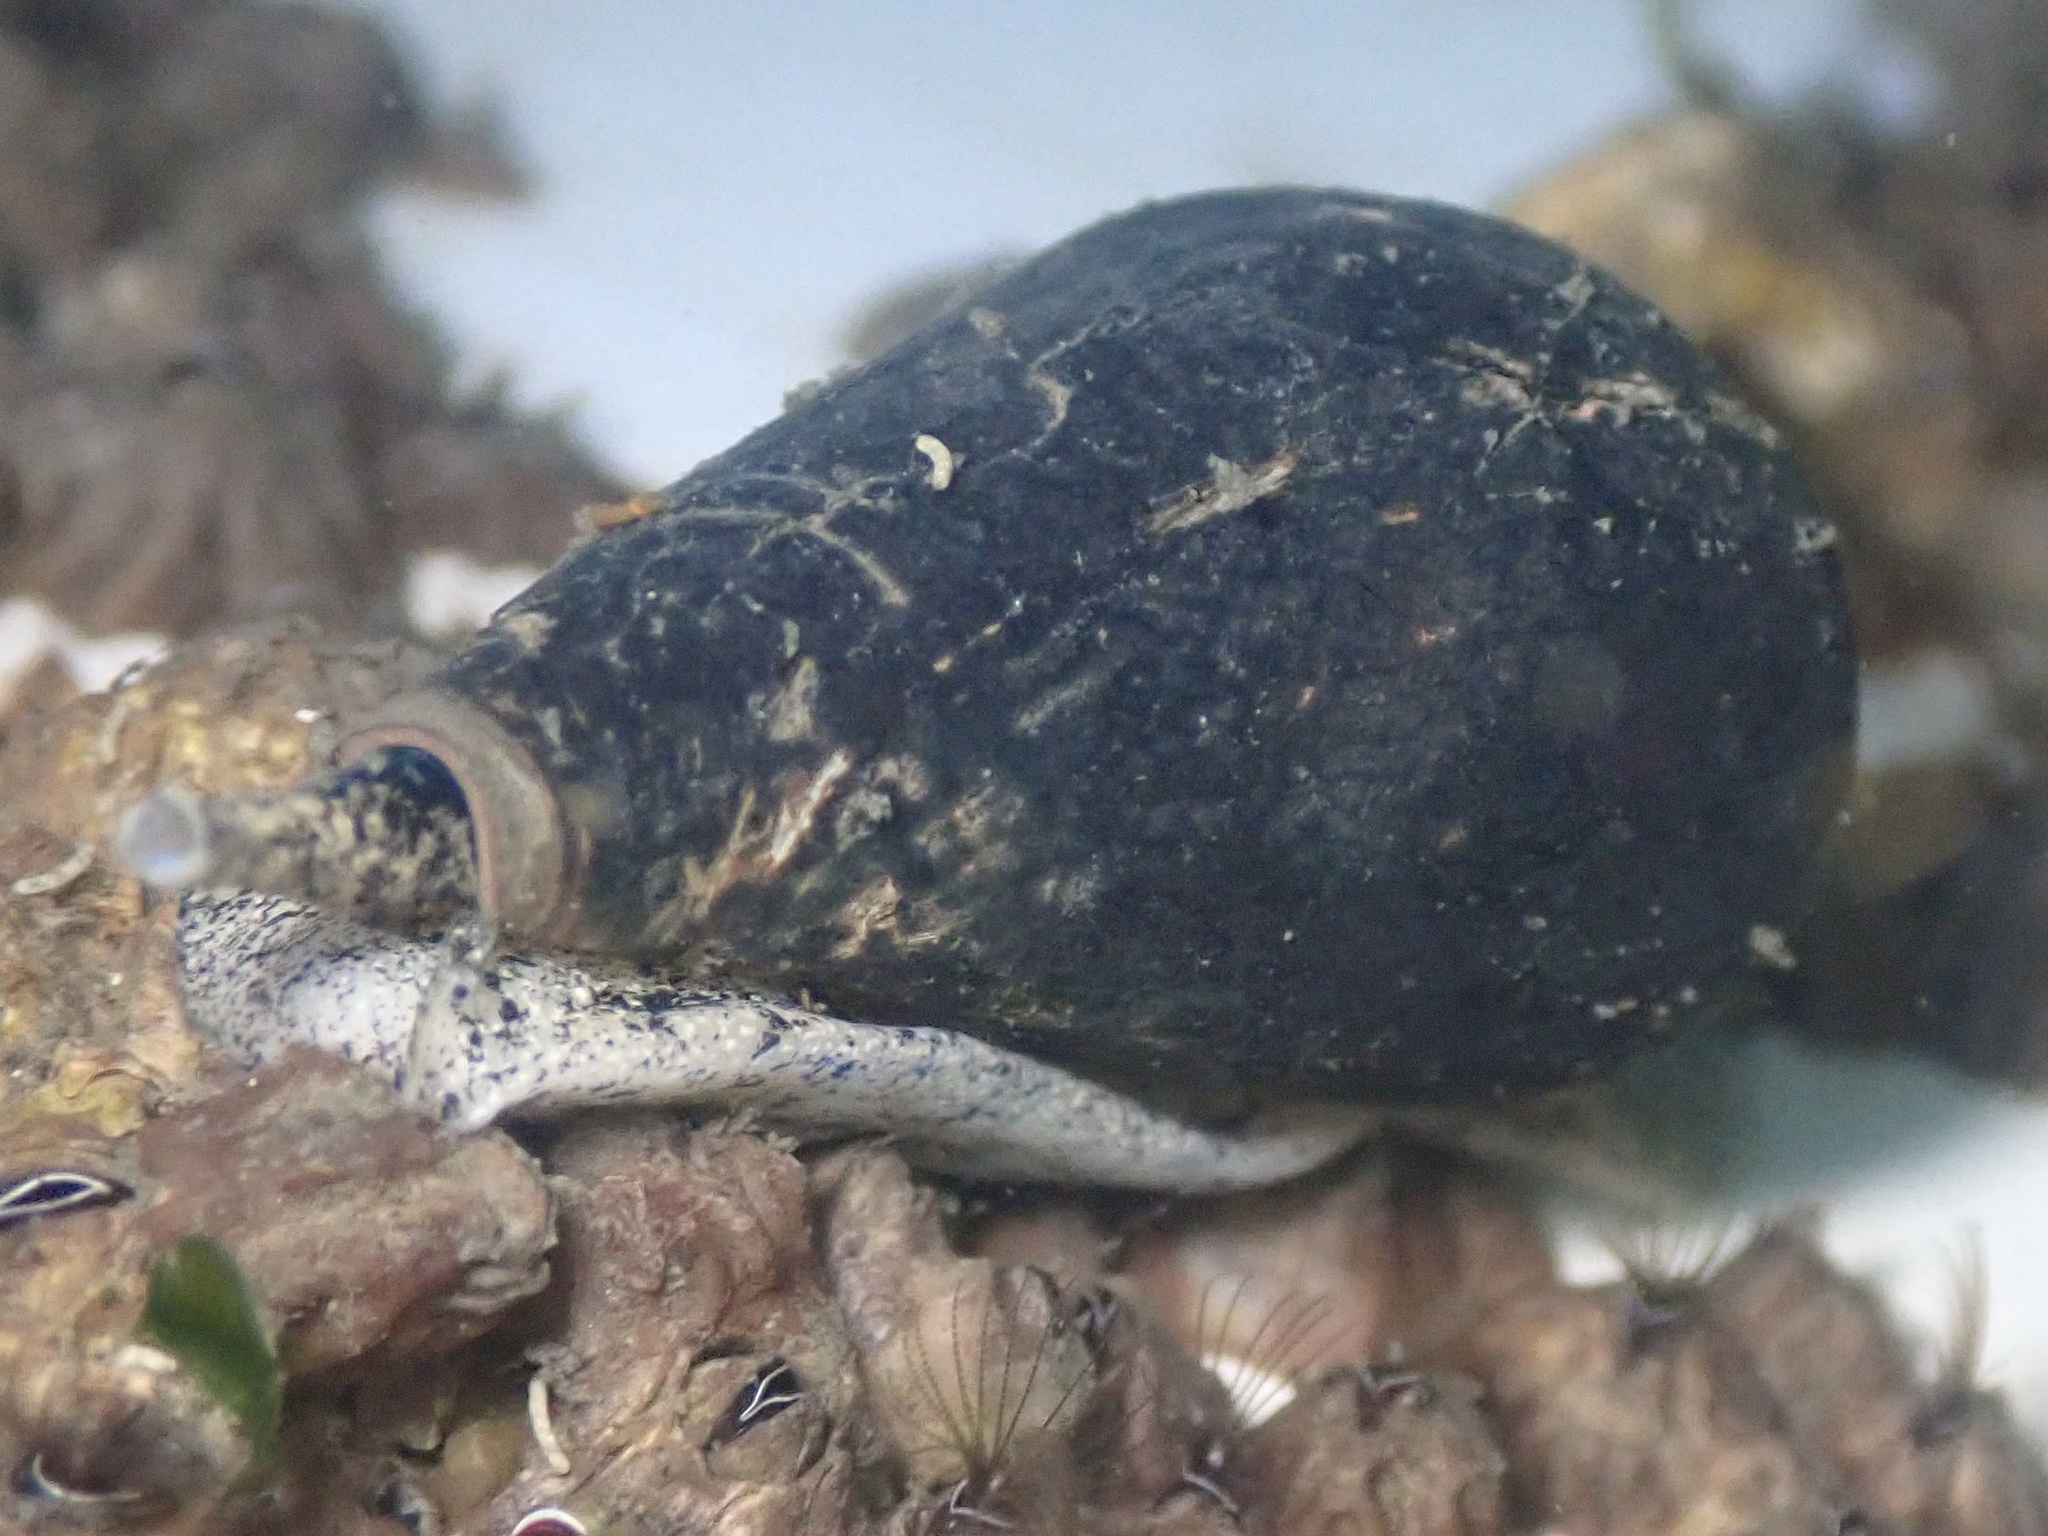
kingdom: Animalia
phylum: Mollusca
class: Gastropoda
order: Neogastropoda
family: Conidae
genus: Californiconus
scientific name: Californiconus californicus
